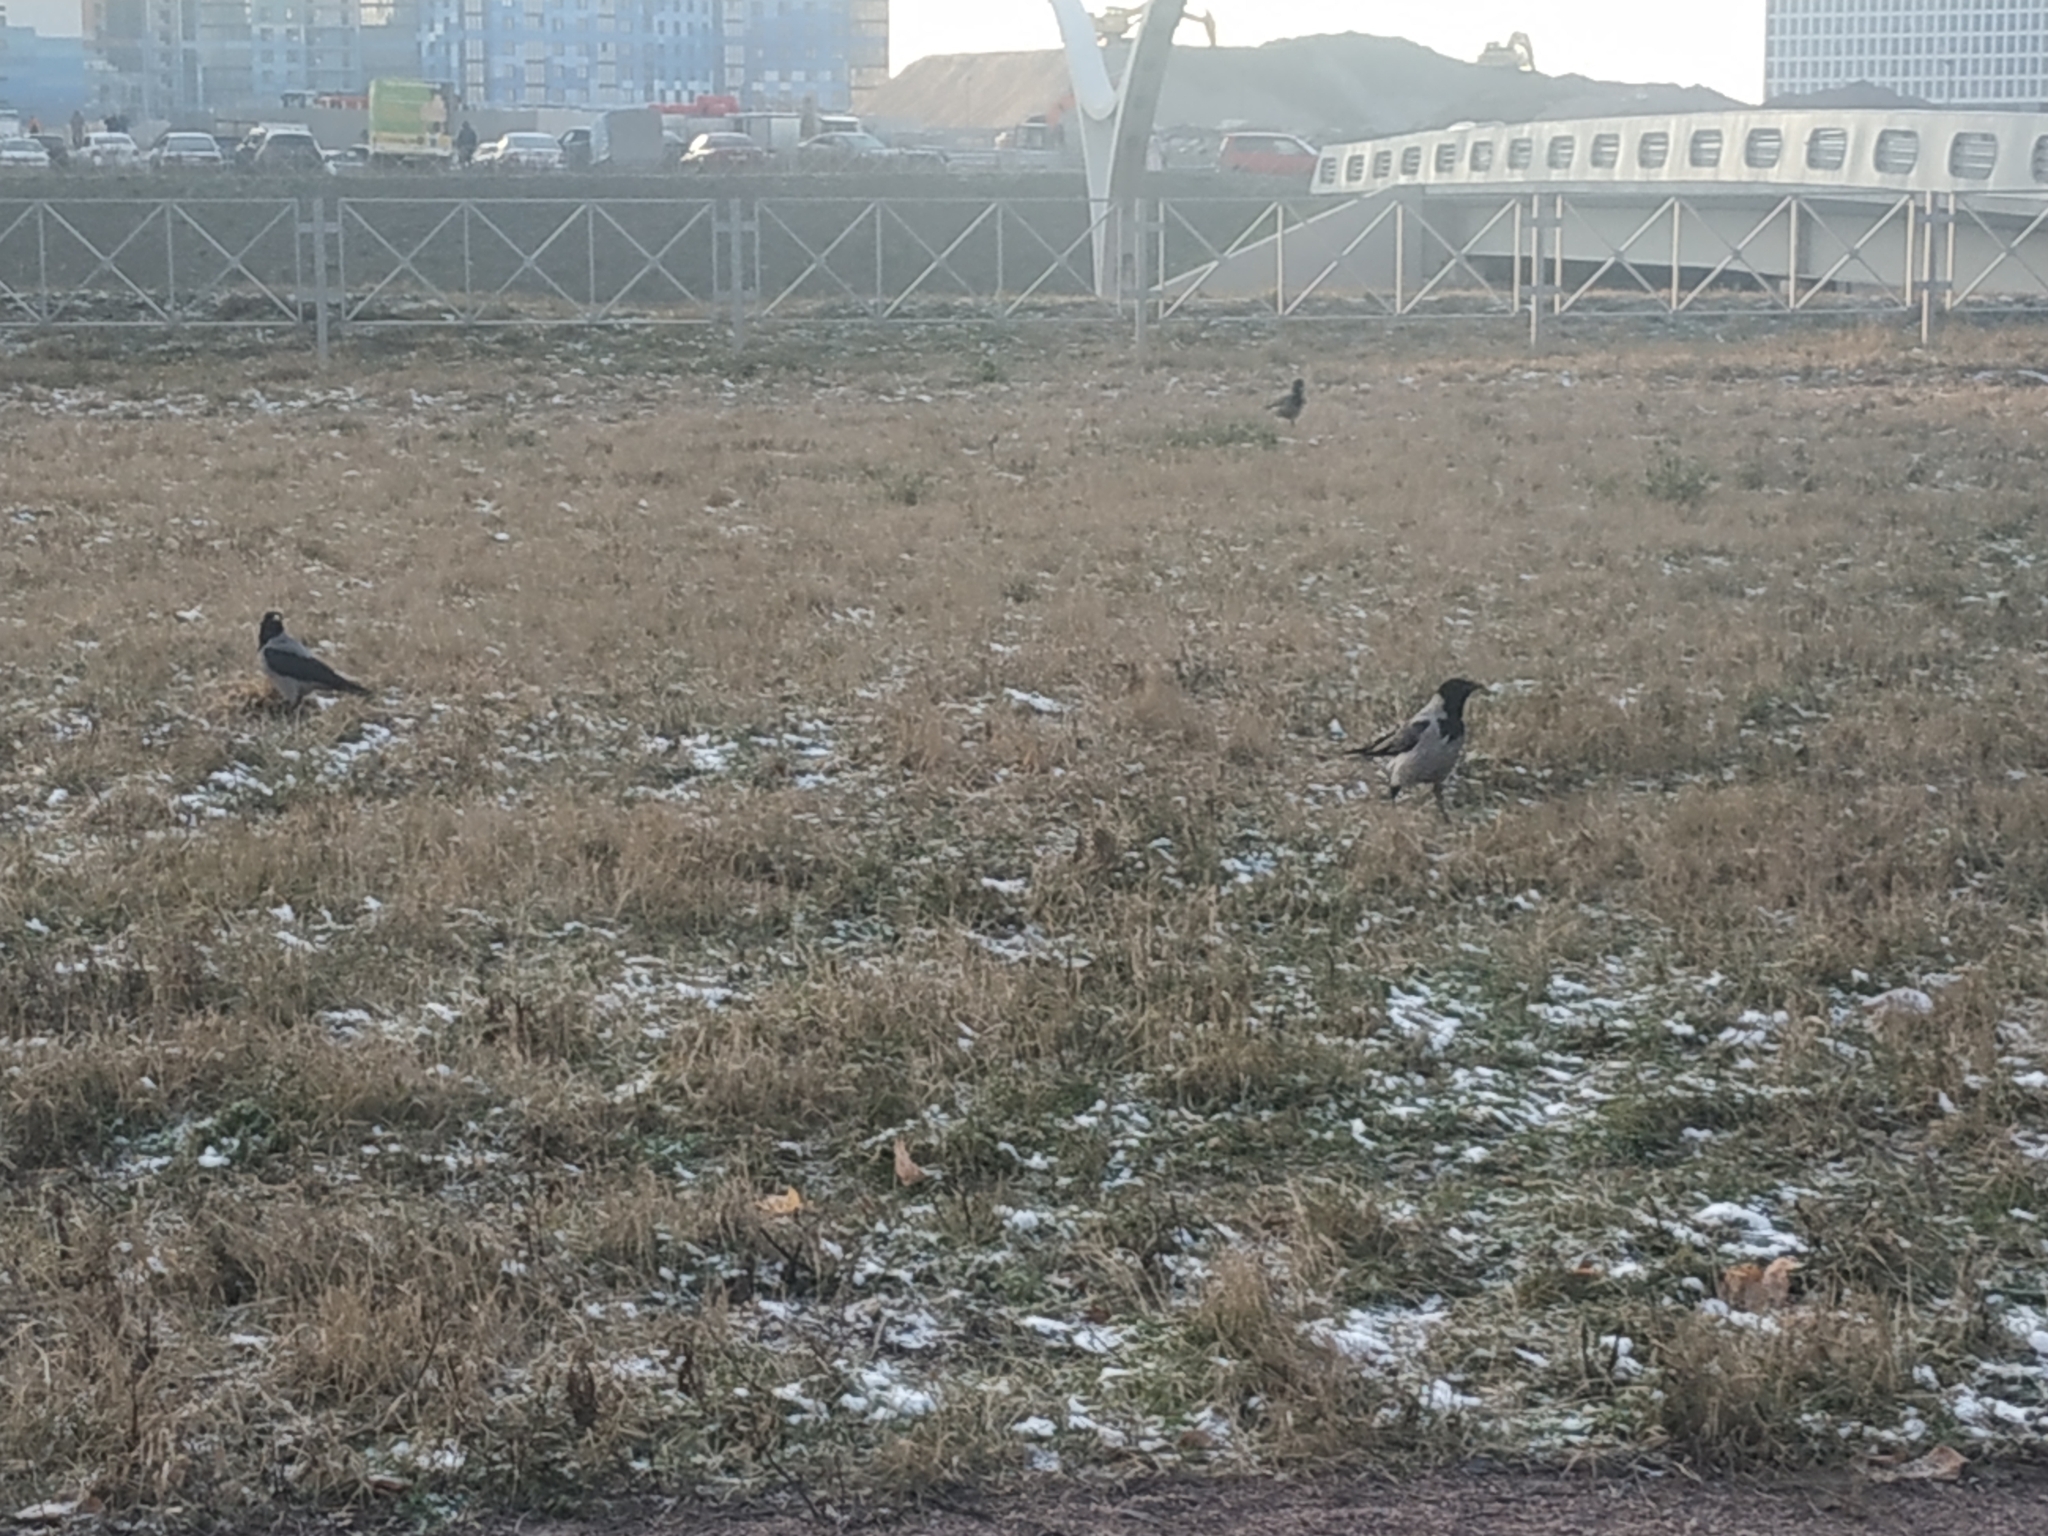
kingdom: Animalia
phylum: Chordata
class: Aves
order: Passeriformes
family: Corvidae
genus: Corvus
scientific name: Corvus cornix
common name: Hooded crow
